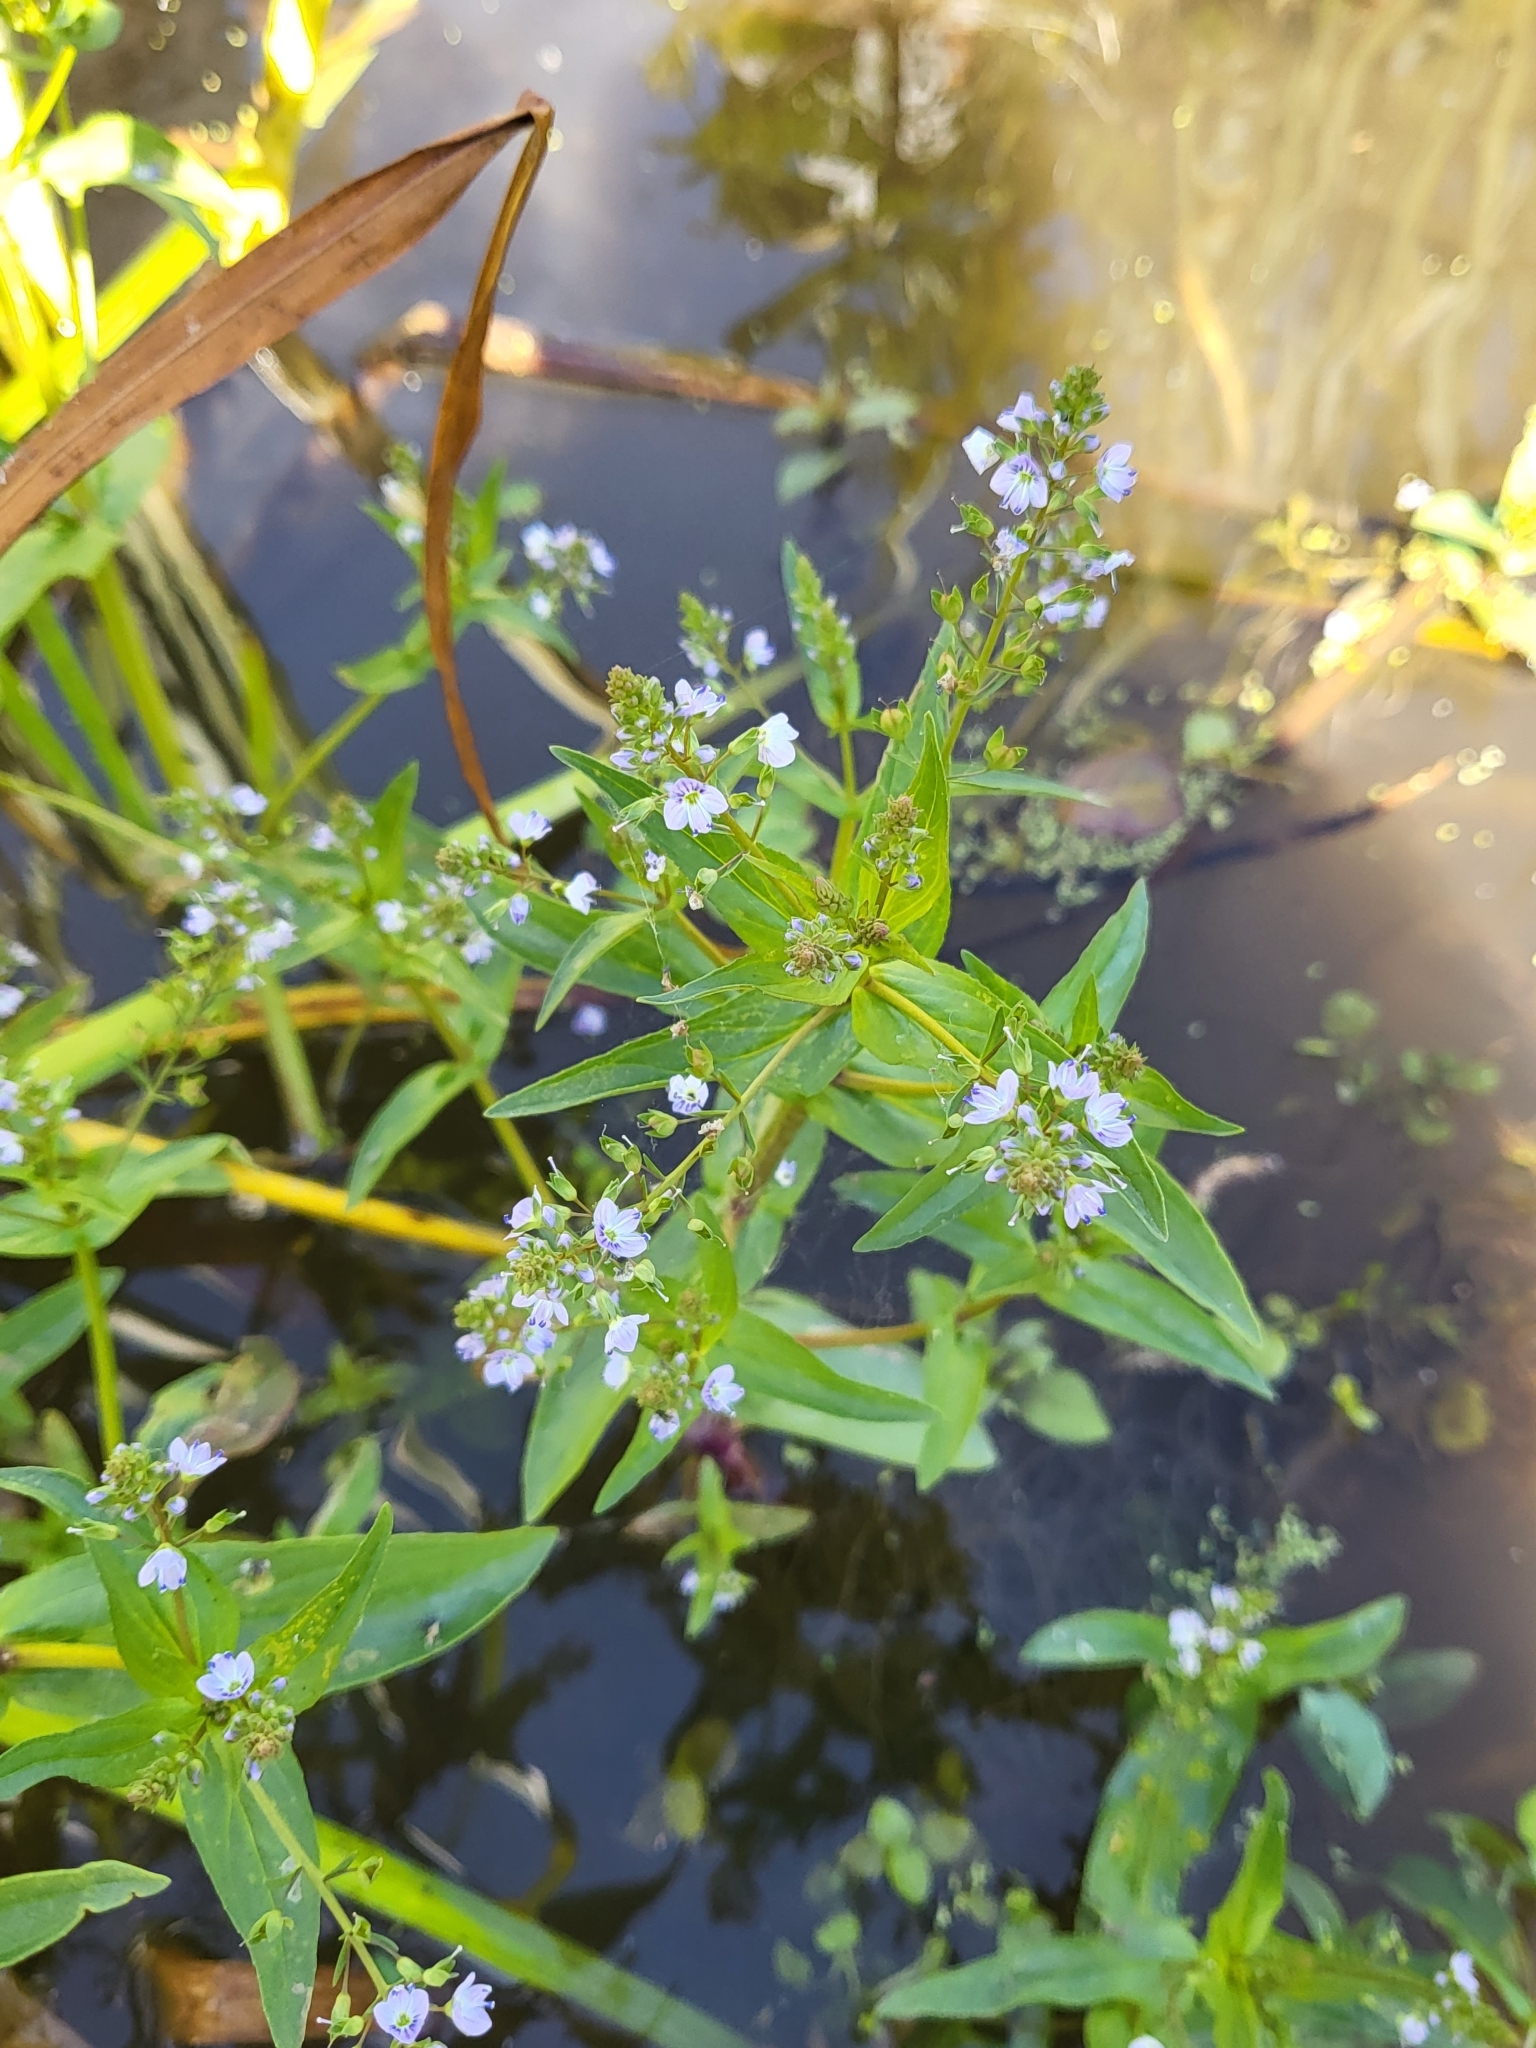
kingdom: Plantae
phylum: Tracheophyta
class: Magnoliopsida
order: Lamiales
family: Plantaginaceae
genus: Veronica
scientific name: Veronica anagallis-aquatica
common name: Water speedwell
